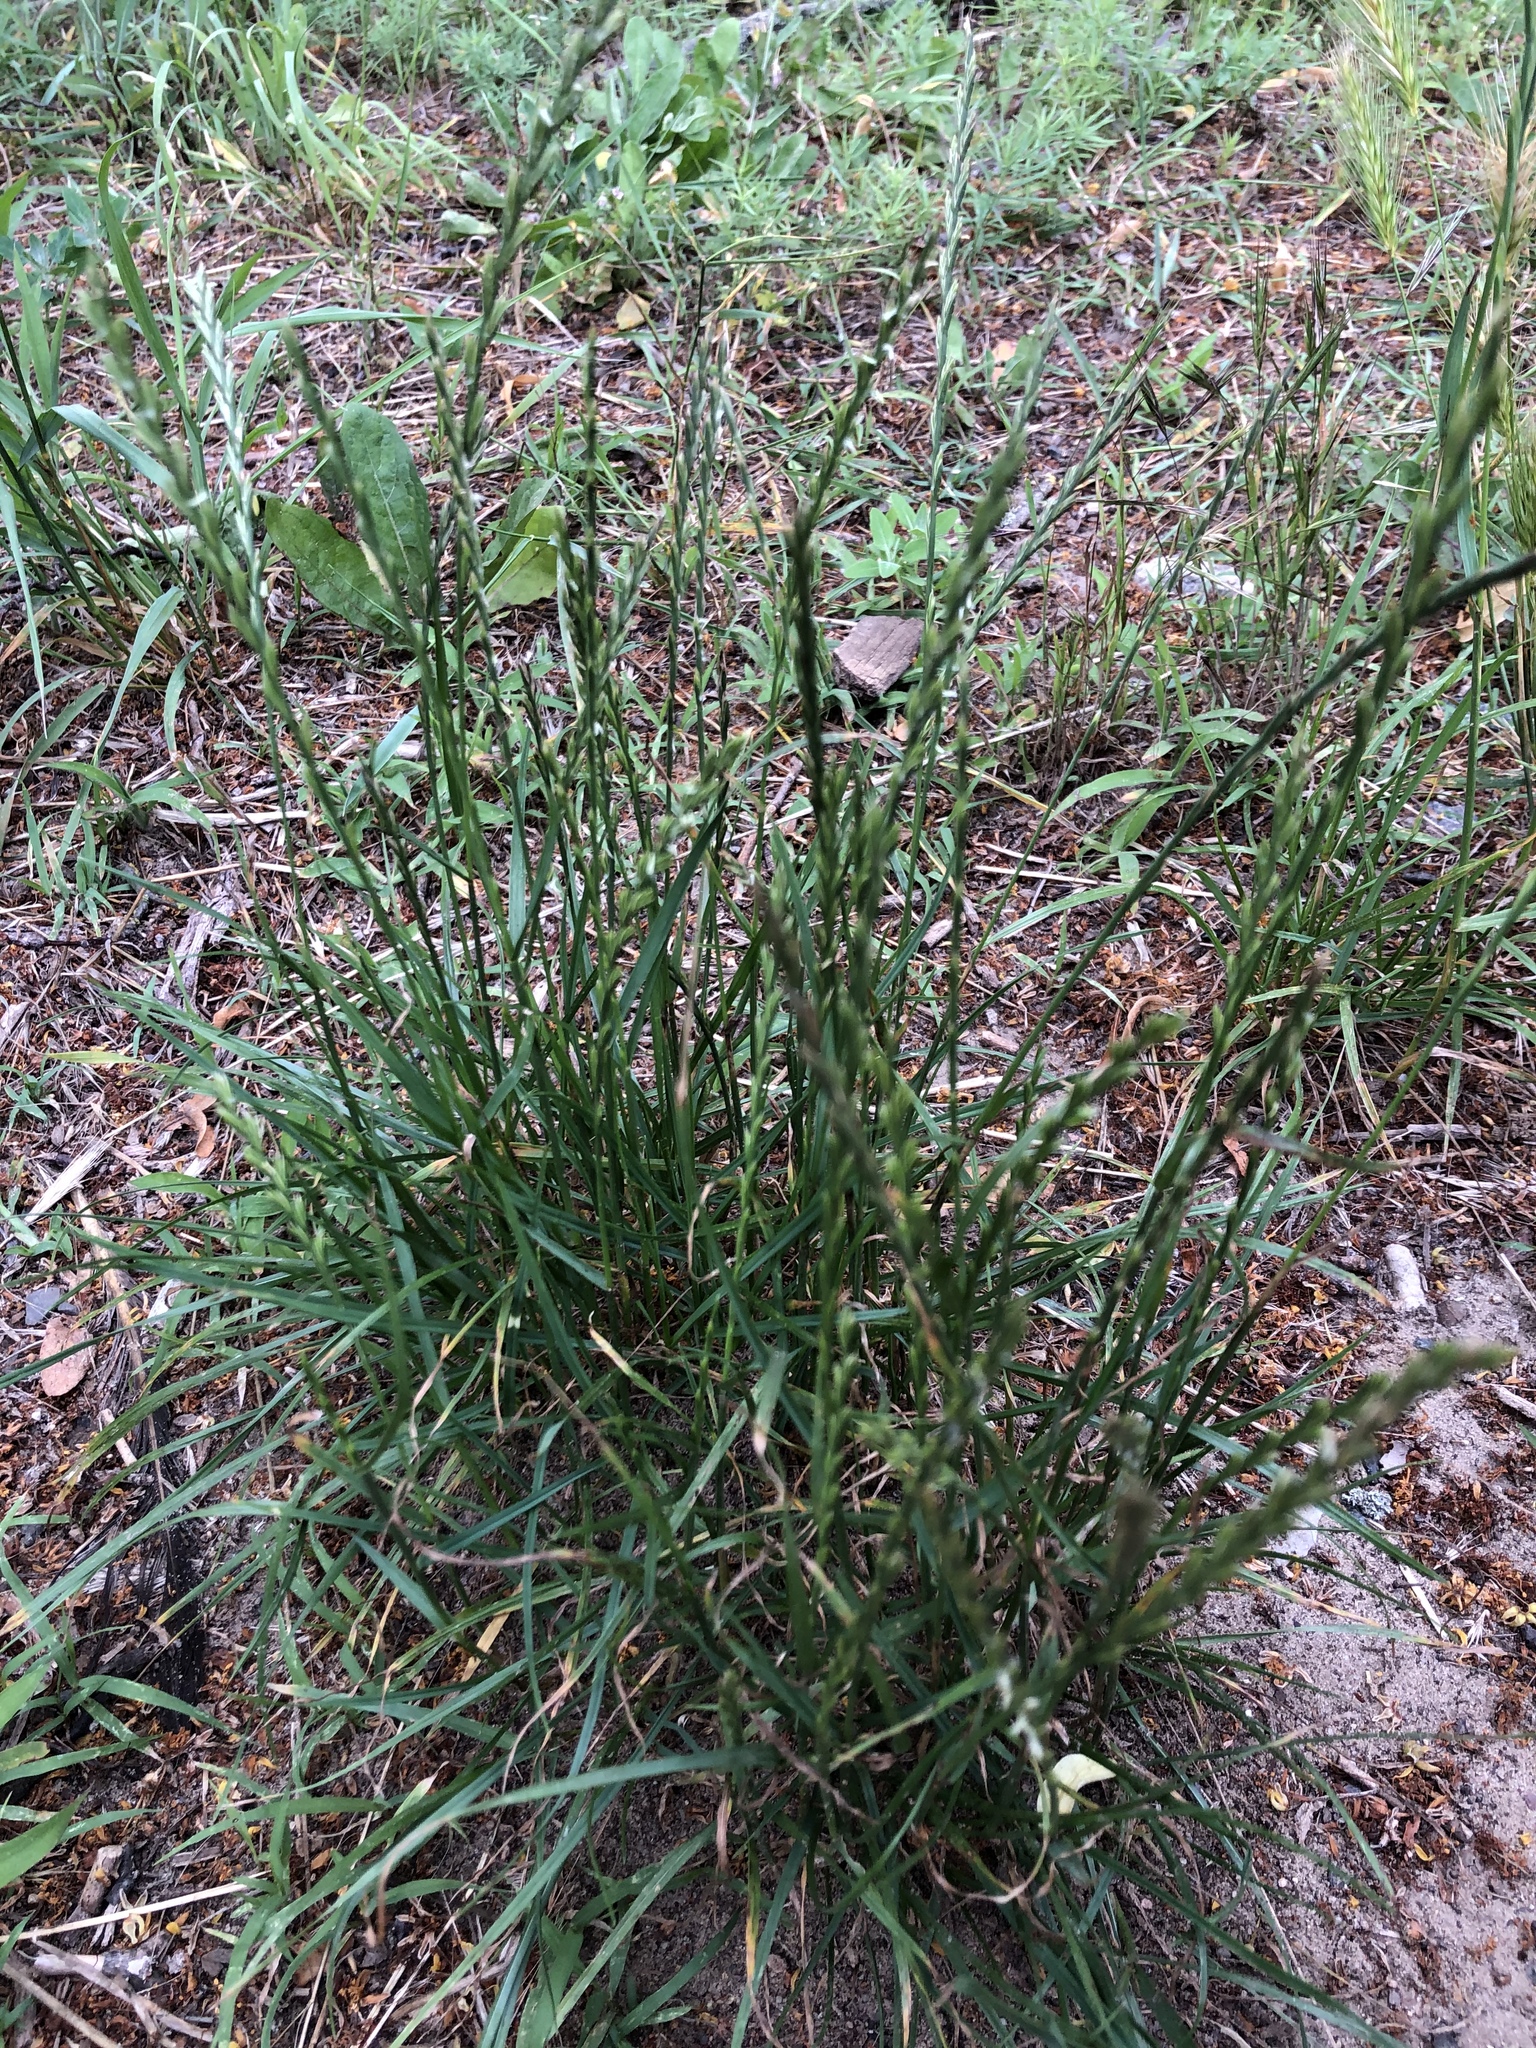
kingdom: Plantae
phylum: Tracheophyta
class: Liliopsida
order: Poales
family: Poaceae
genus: Lolium
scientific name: Lolium perenne
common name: Perennial ryegrass
